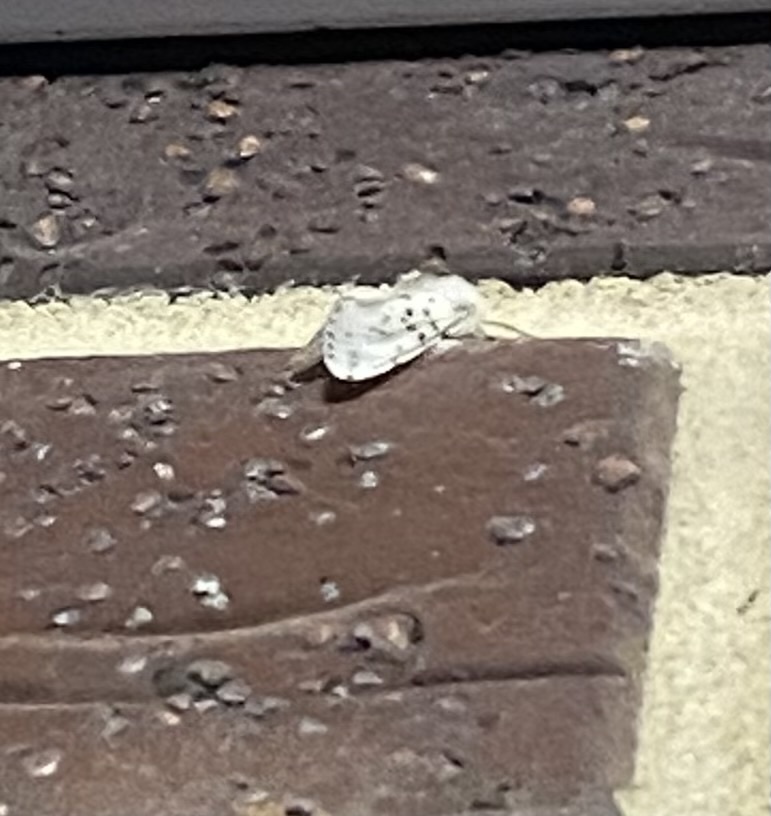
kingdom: Animalia
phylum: Arthropoda
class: Insecta
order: Lepidoptera
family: Erebidae
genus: Hyphantria
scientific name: Hyphantria cunea
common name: American white moth
